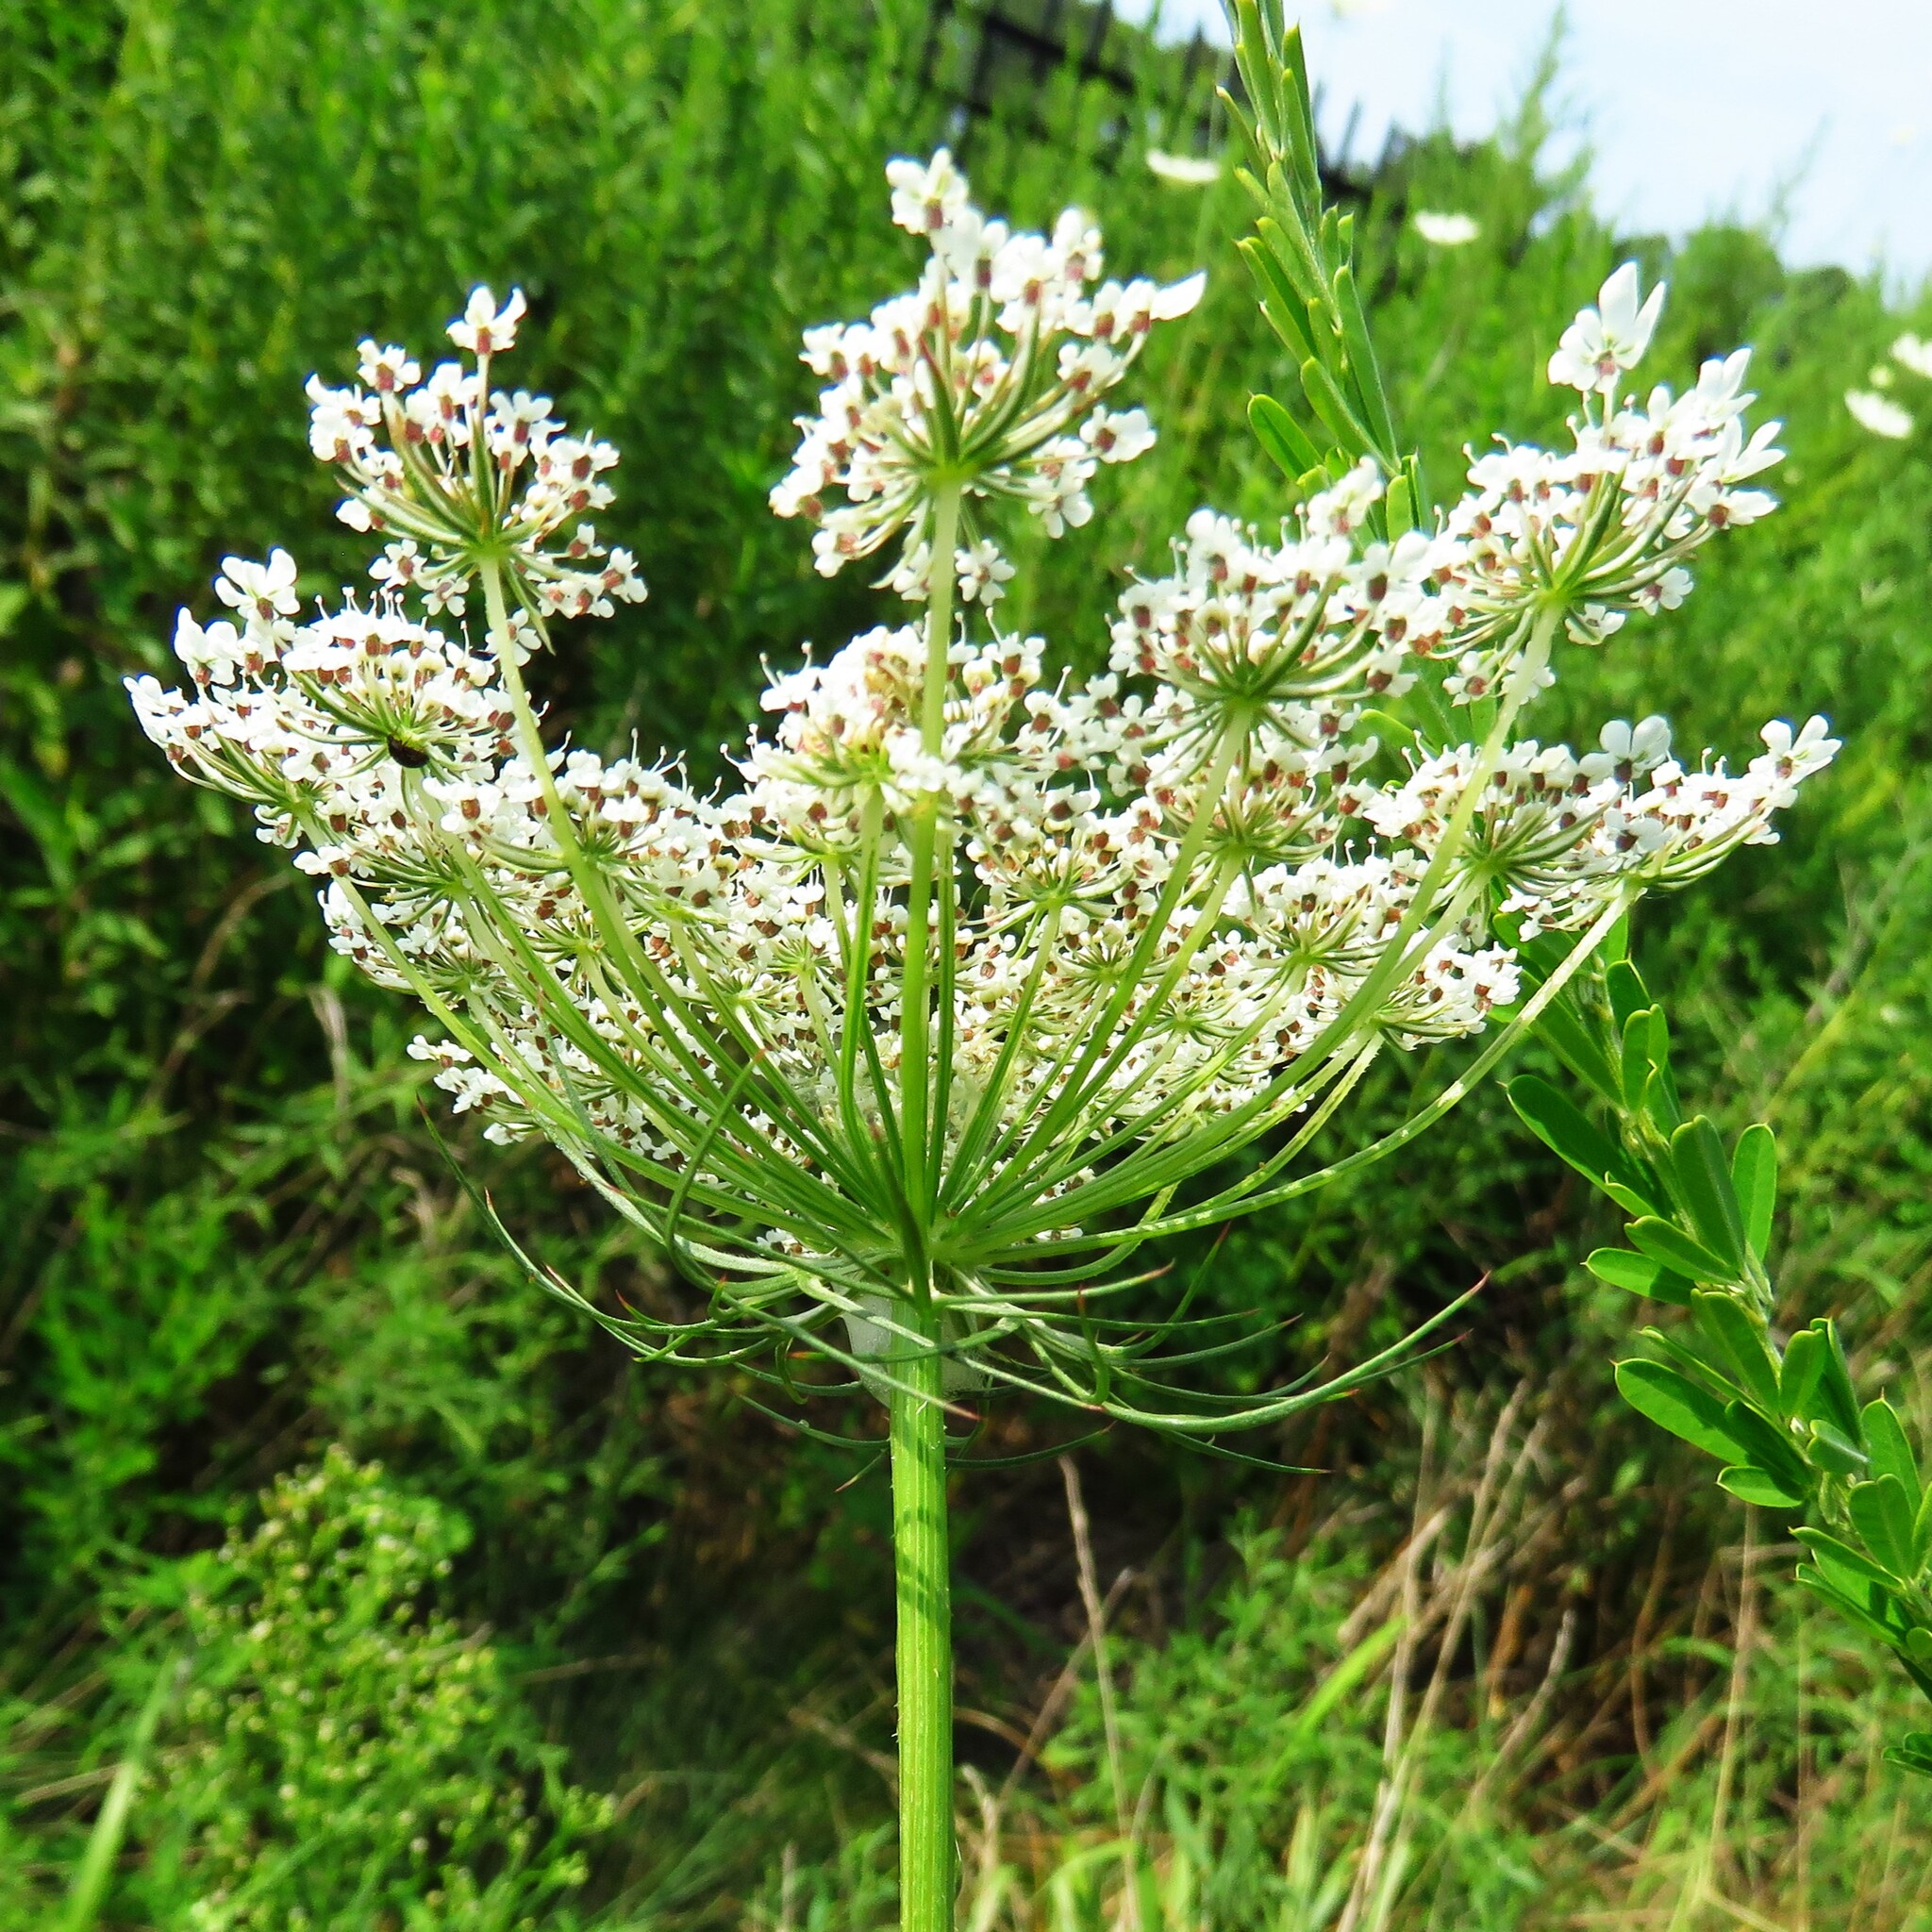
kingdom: Plantae
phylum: Tracheophyta
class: Magnoliopsida
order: Apiales
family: Apiaceae
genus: Daucus
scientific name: Daucus carota
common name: Wild carrot
